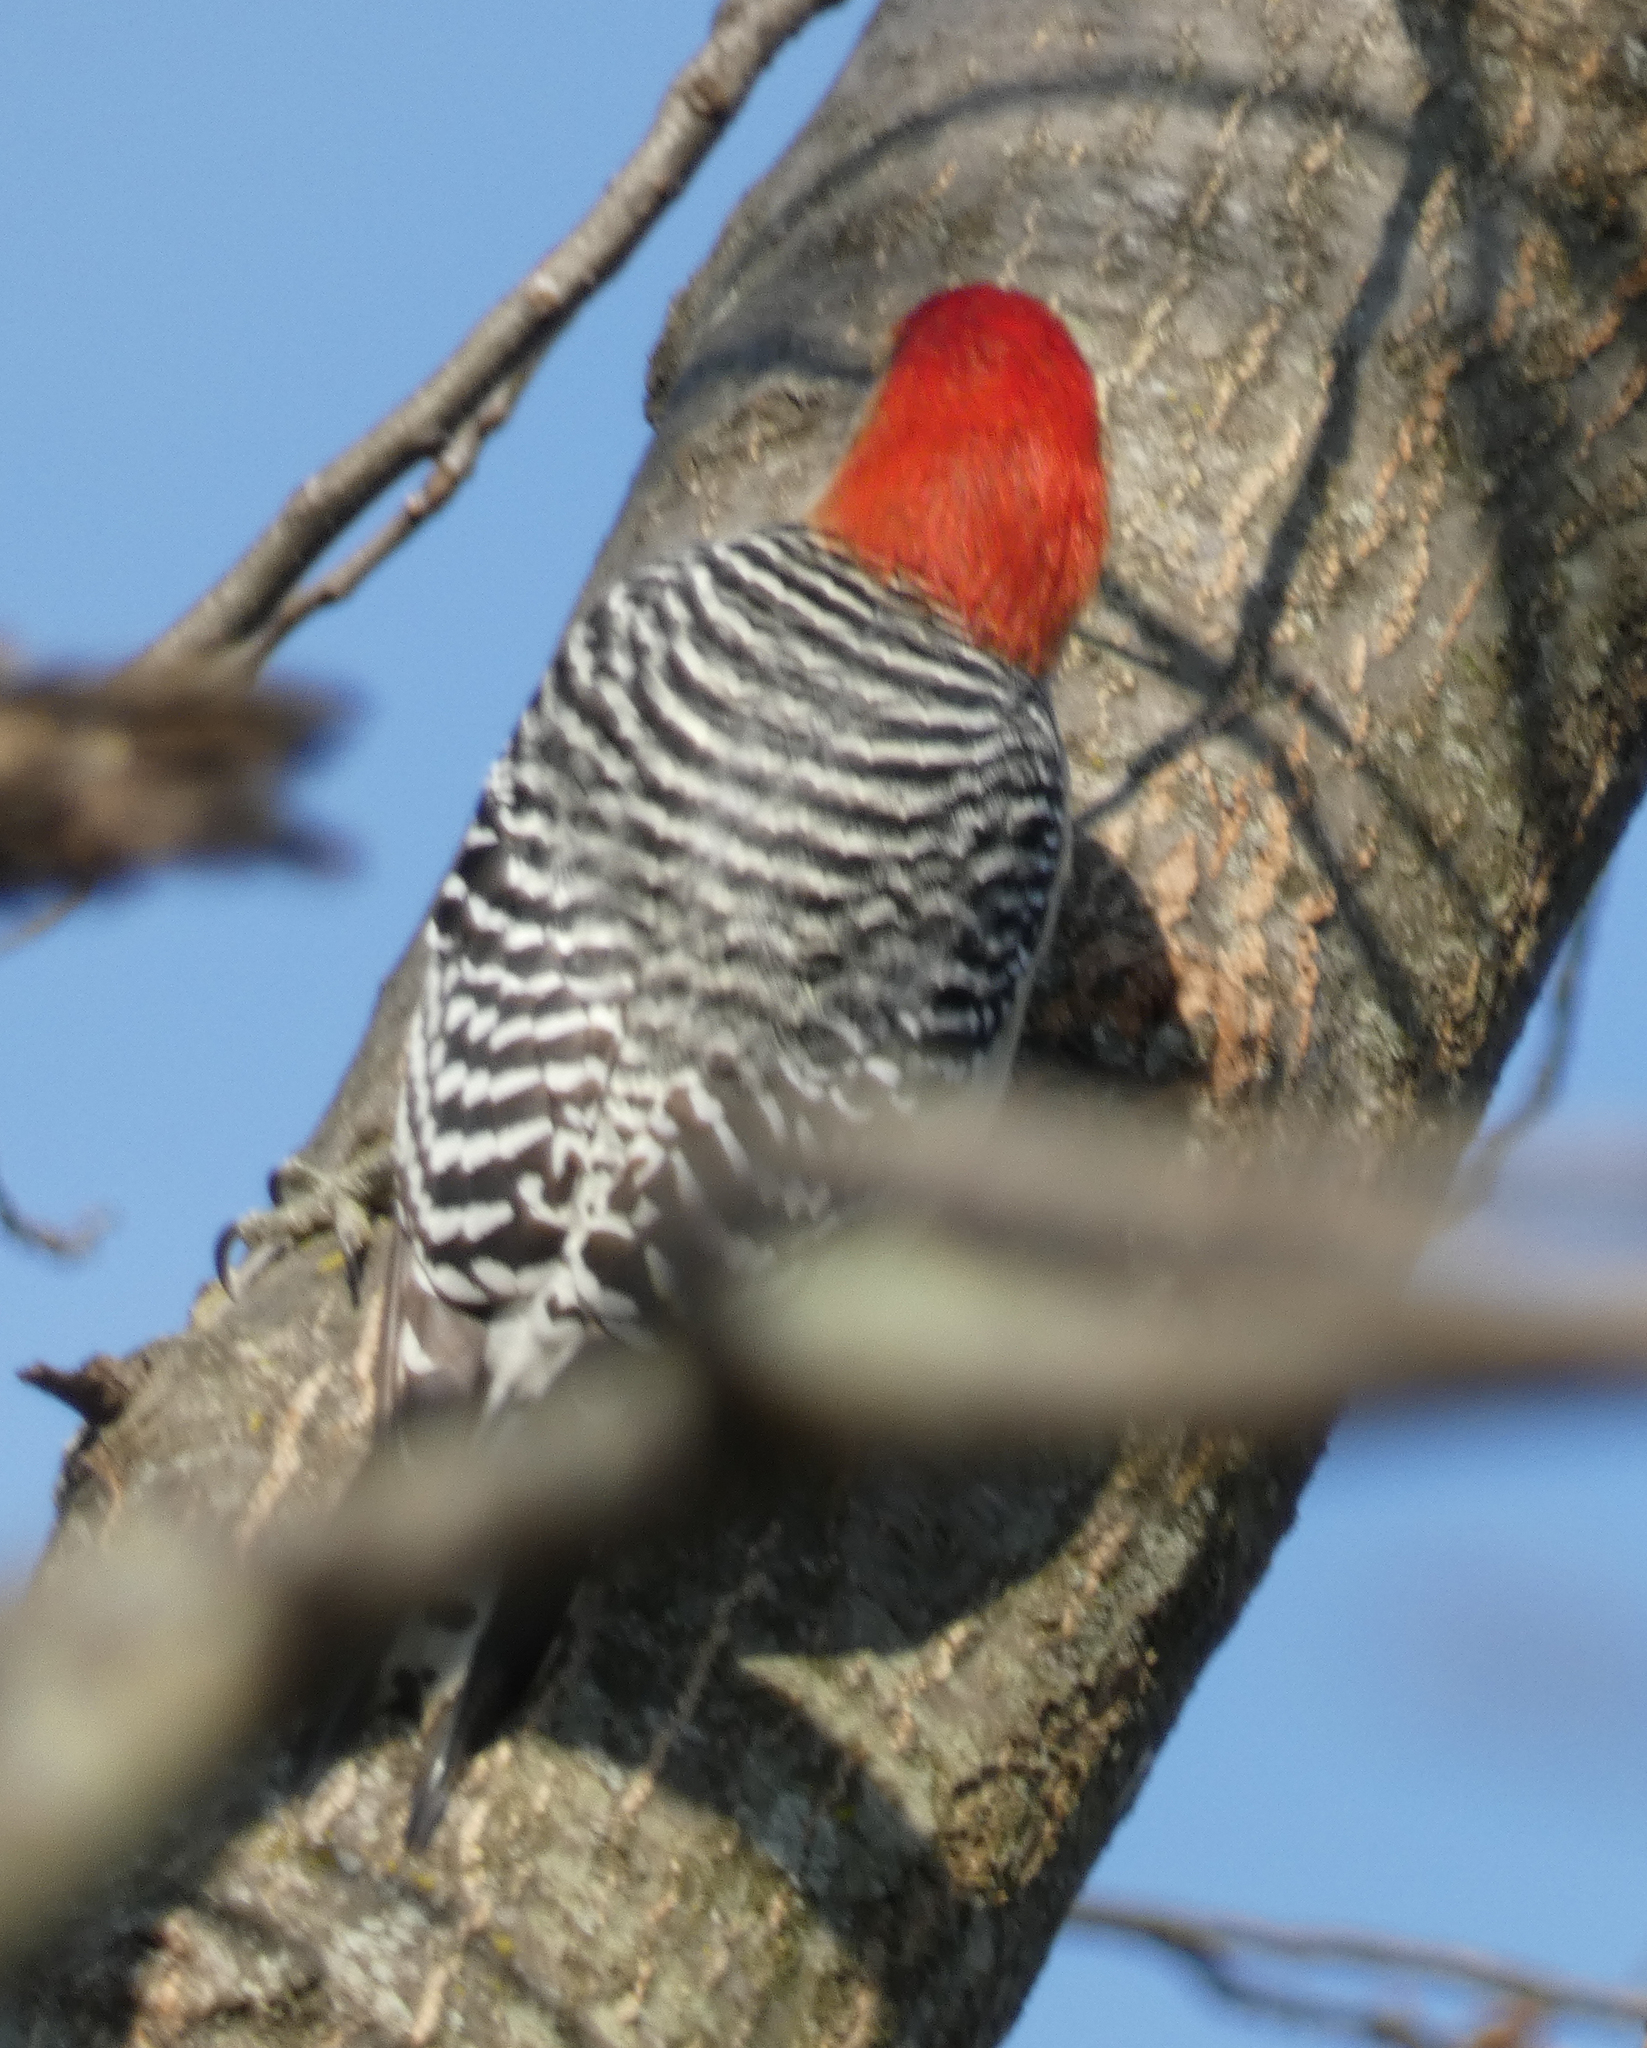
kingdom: Animalia
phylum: Chordata
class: Aves
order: Piciformes
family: Picidae
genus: Melanerpes
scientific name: Melanerpes carolinus
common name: Red-bellied woodpecker
